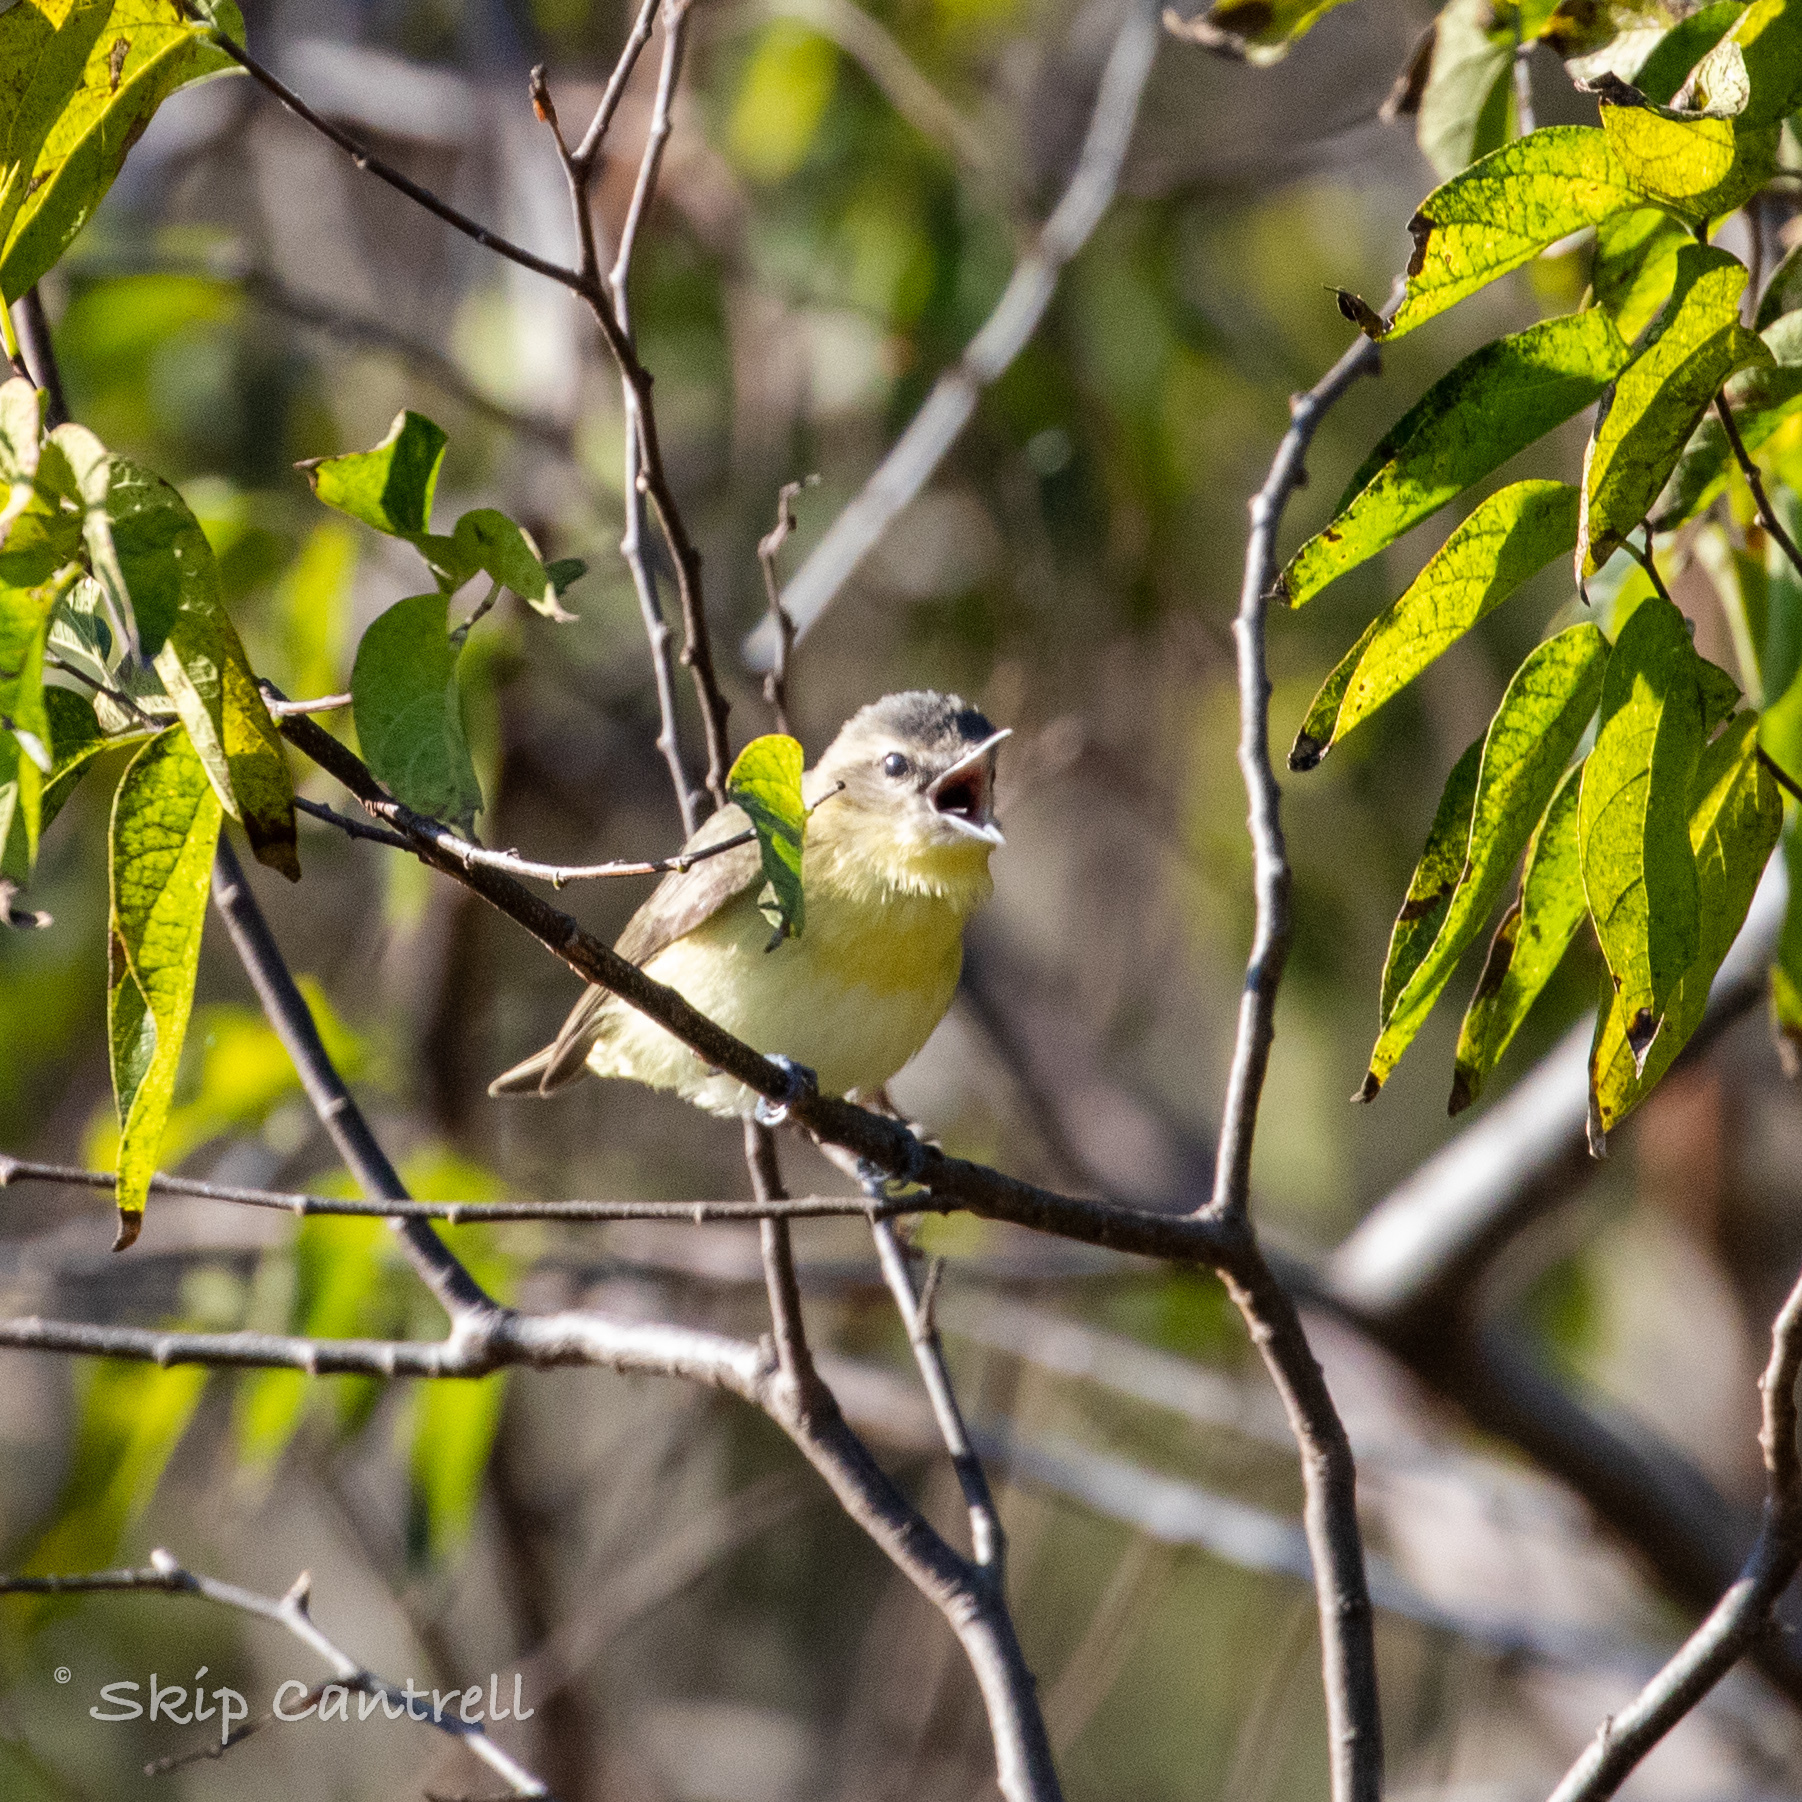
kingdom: Animalia
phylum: Chordata
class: Aves
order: Passeriformes
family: Vireonidae
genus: Vireo
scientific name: Vireo philadelphicus
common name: Philadelphia vireo
